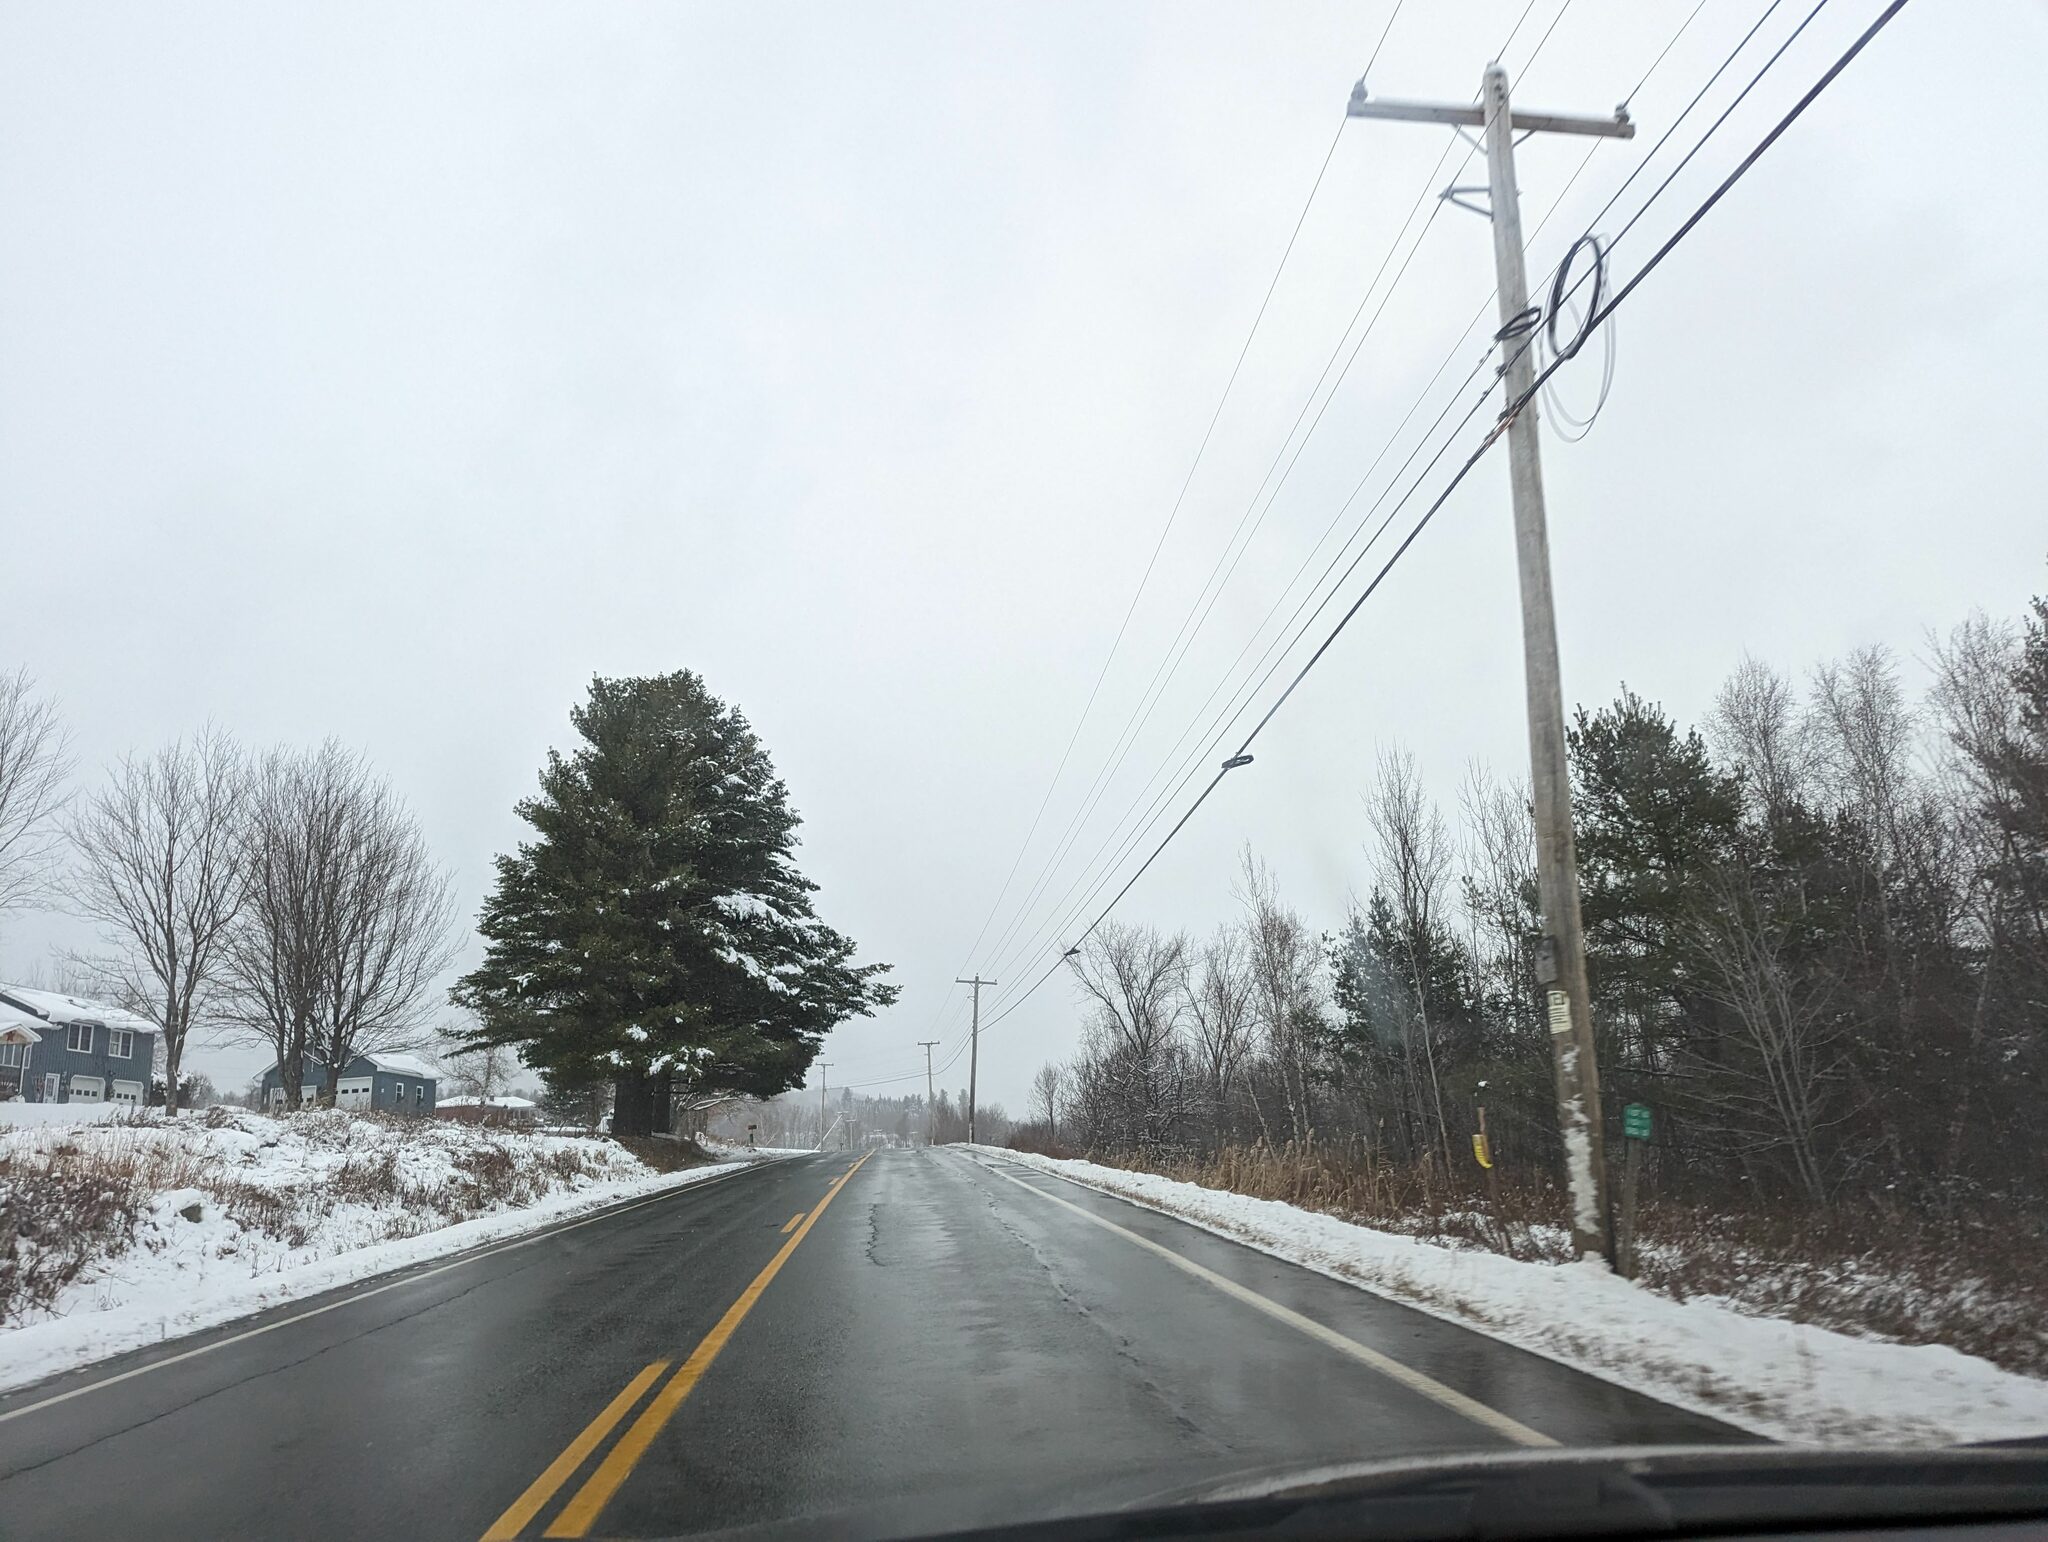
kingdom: Plantae
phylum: Tracheophyta
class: Pinopsida
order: Pinales
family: Pinaceae
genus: Pinus
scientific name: Pinus strobus
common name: Weymouth pine
